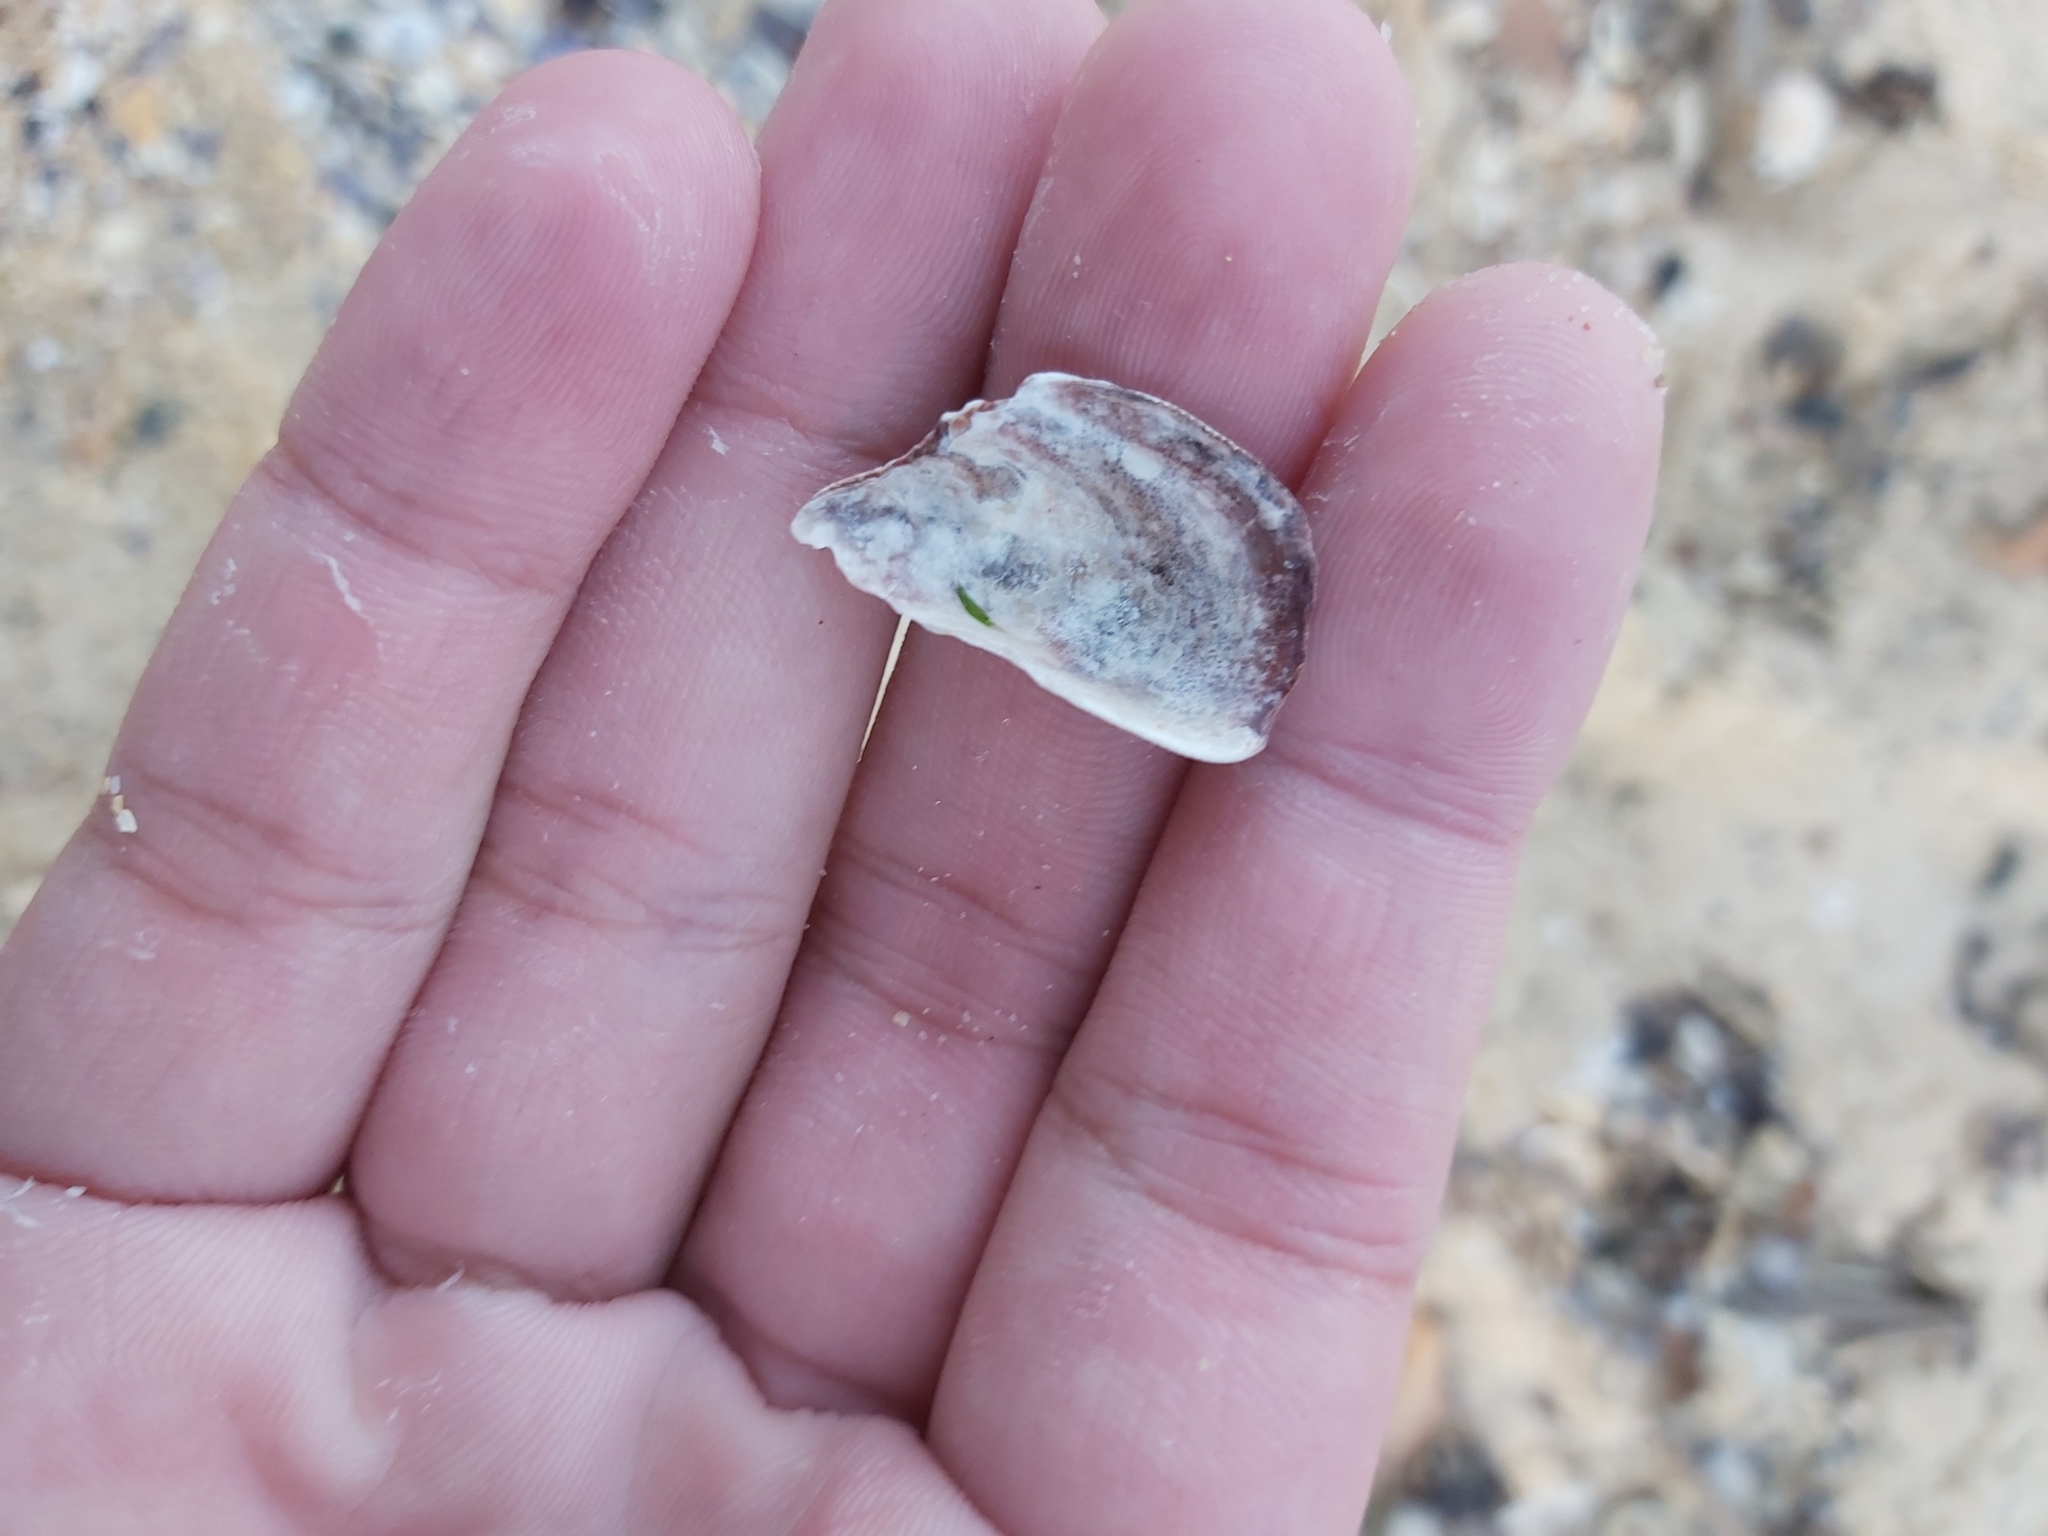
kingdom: Animalia
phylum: Mollusca
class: Bivalvia
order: Mytilida
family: Mytilidae
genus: Trichomya
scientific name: Trichomya hirsuta
